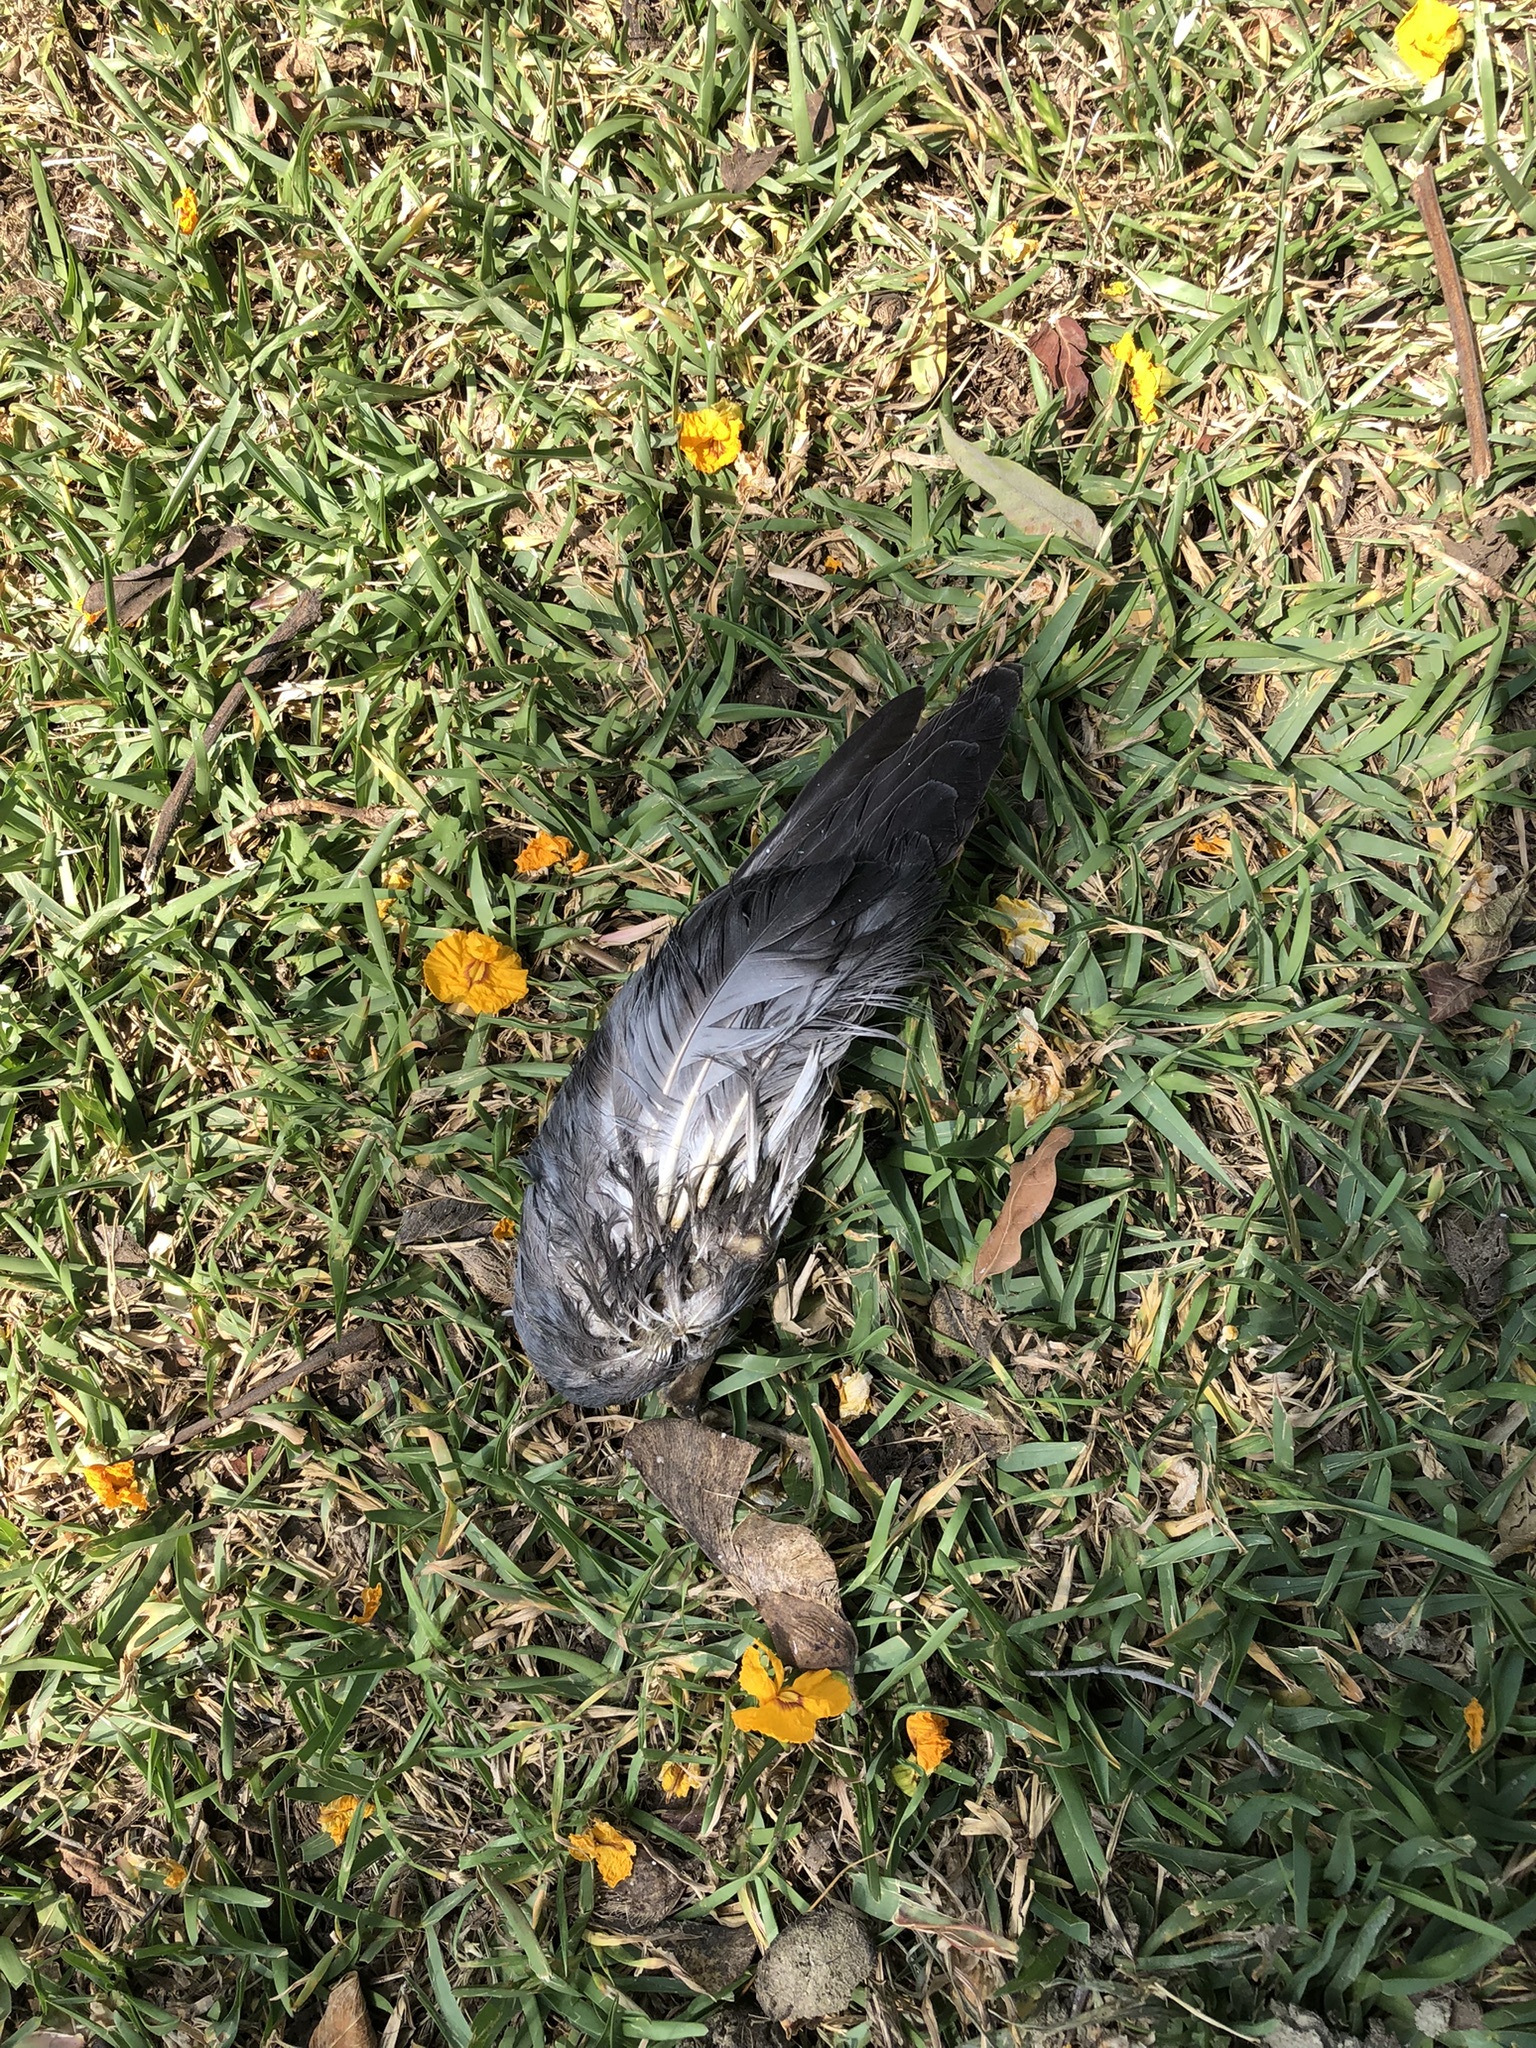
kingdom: Animalia
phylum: Chordata
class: Aves
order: Columbiformes
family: Columbidae
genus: Columba
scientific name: Columba livia
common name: Rock pigeon
